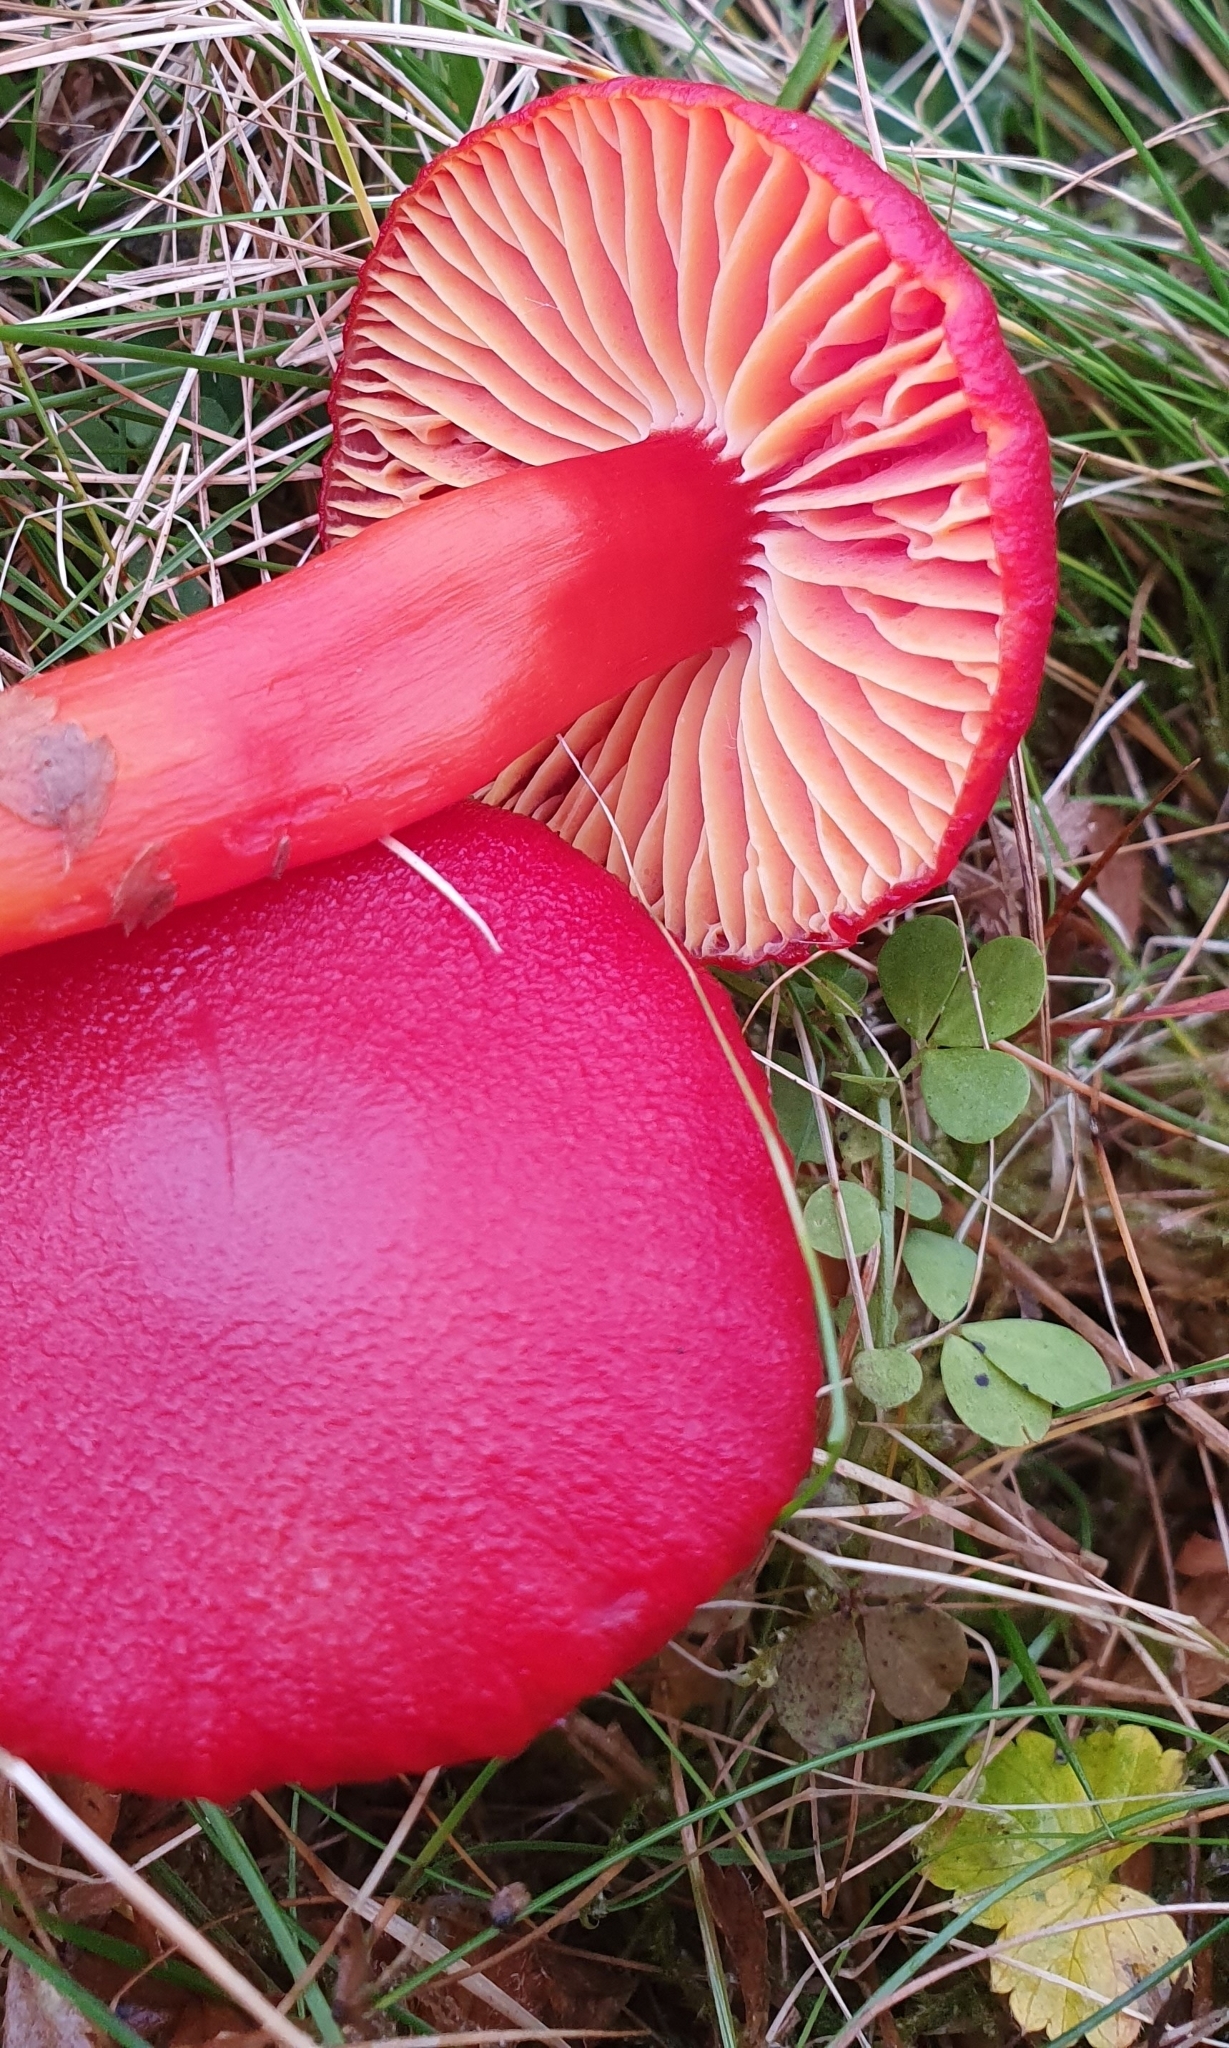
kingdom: Fungi
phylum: Basidiomycota
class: Agaricomycetes
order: Agaricales
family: Hygrophoraceae
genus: Hygrocybe
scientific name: Hygrocybe coccinea
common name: Scarlet hood
